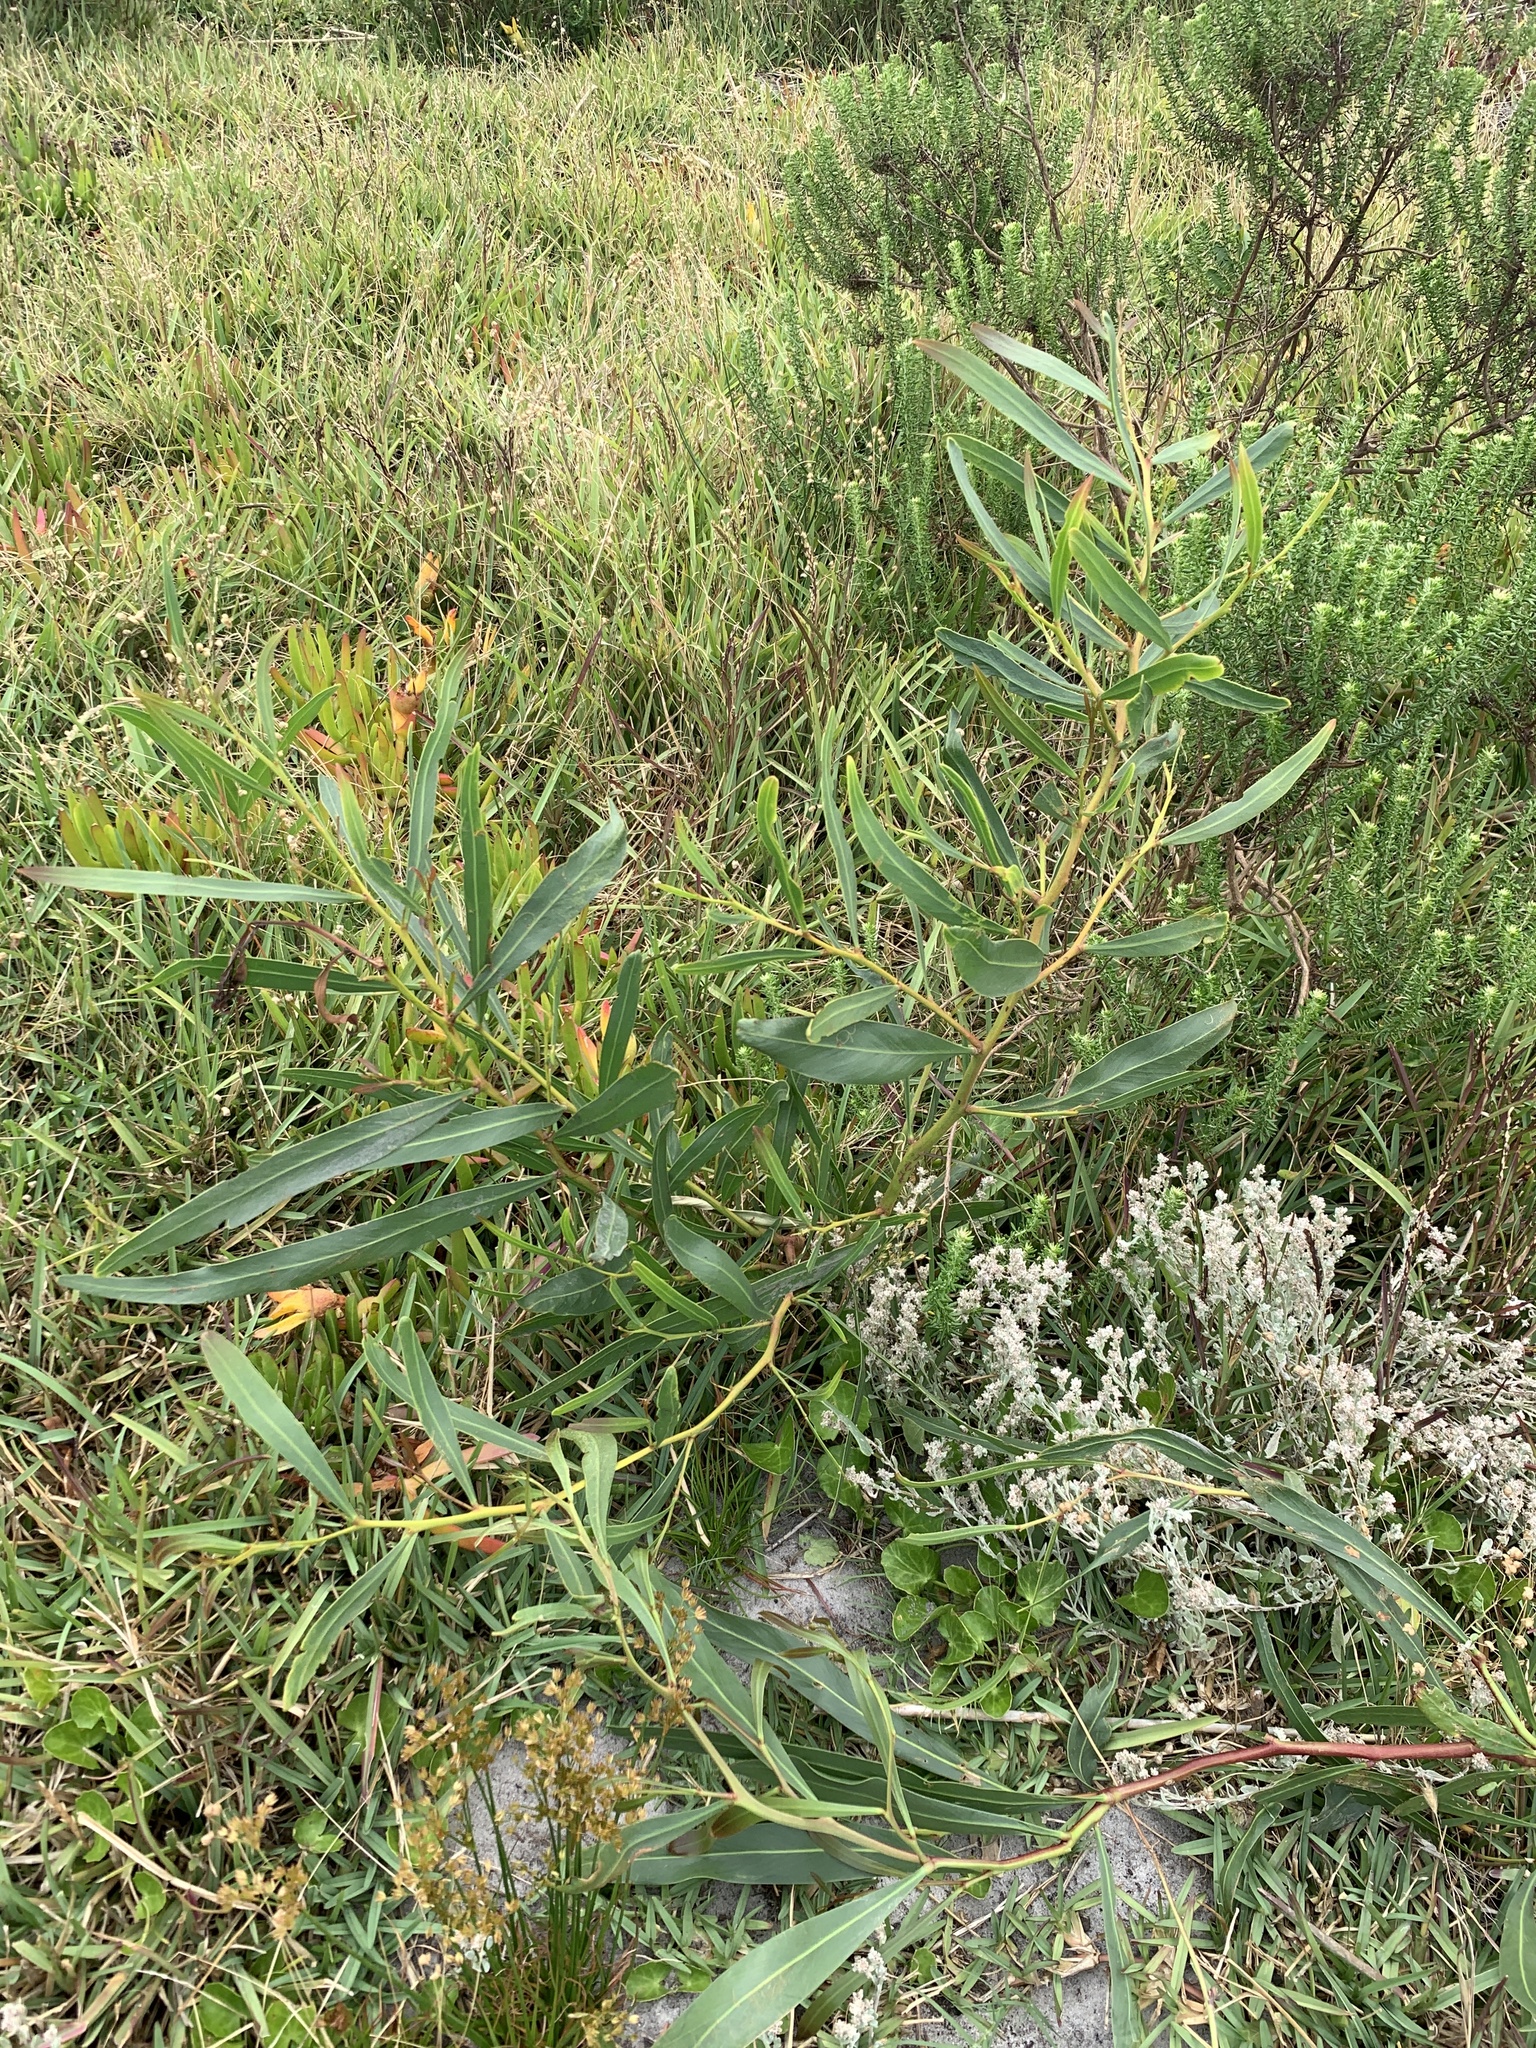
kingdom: Plantae
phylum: Tracheophyta
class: Magnoliopsida
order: Fabales
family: Fabaceae
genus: Acacia
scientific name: Acacia saligna
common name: Orange wattle
